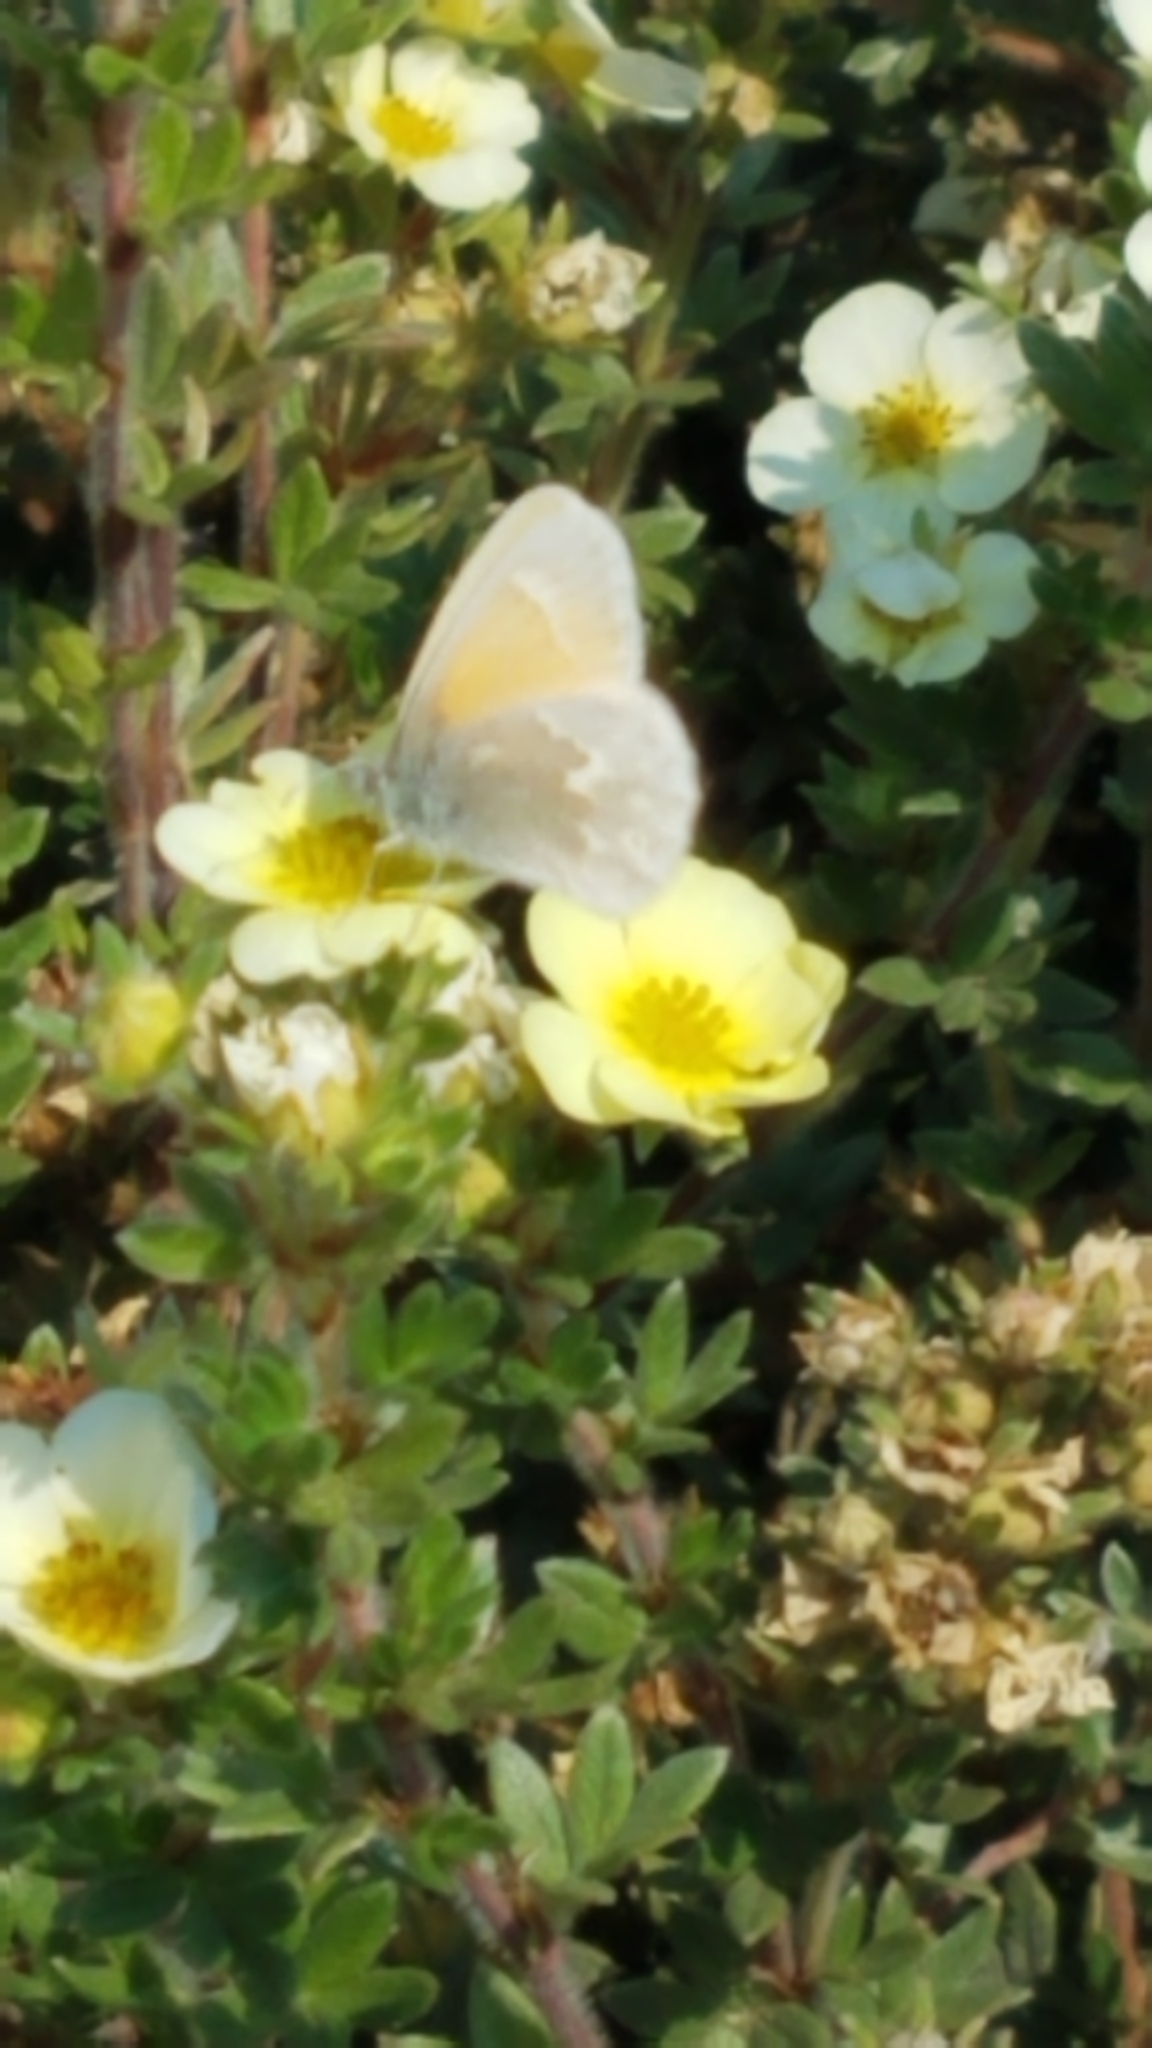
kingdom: Animalia
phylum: Arthropoda
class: Insecta
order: Lepidoptera
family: Nymphalidae
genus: Coenonympha
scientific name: Coenonympha california
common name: Common ringlet
